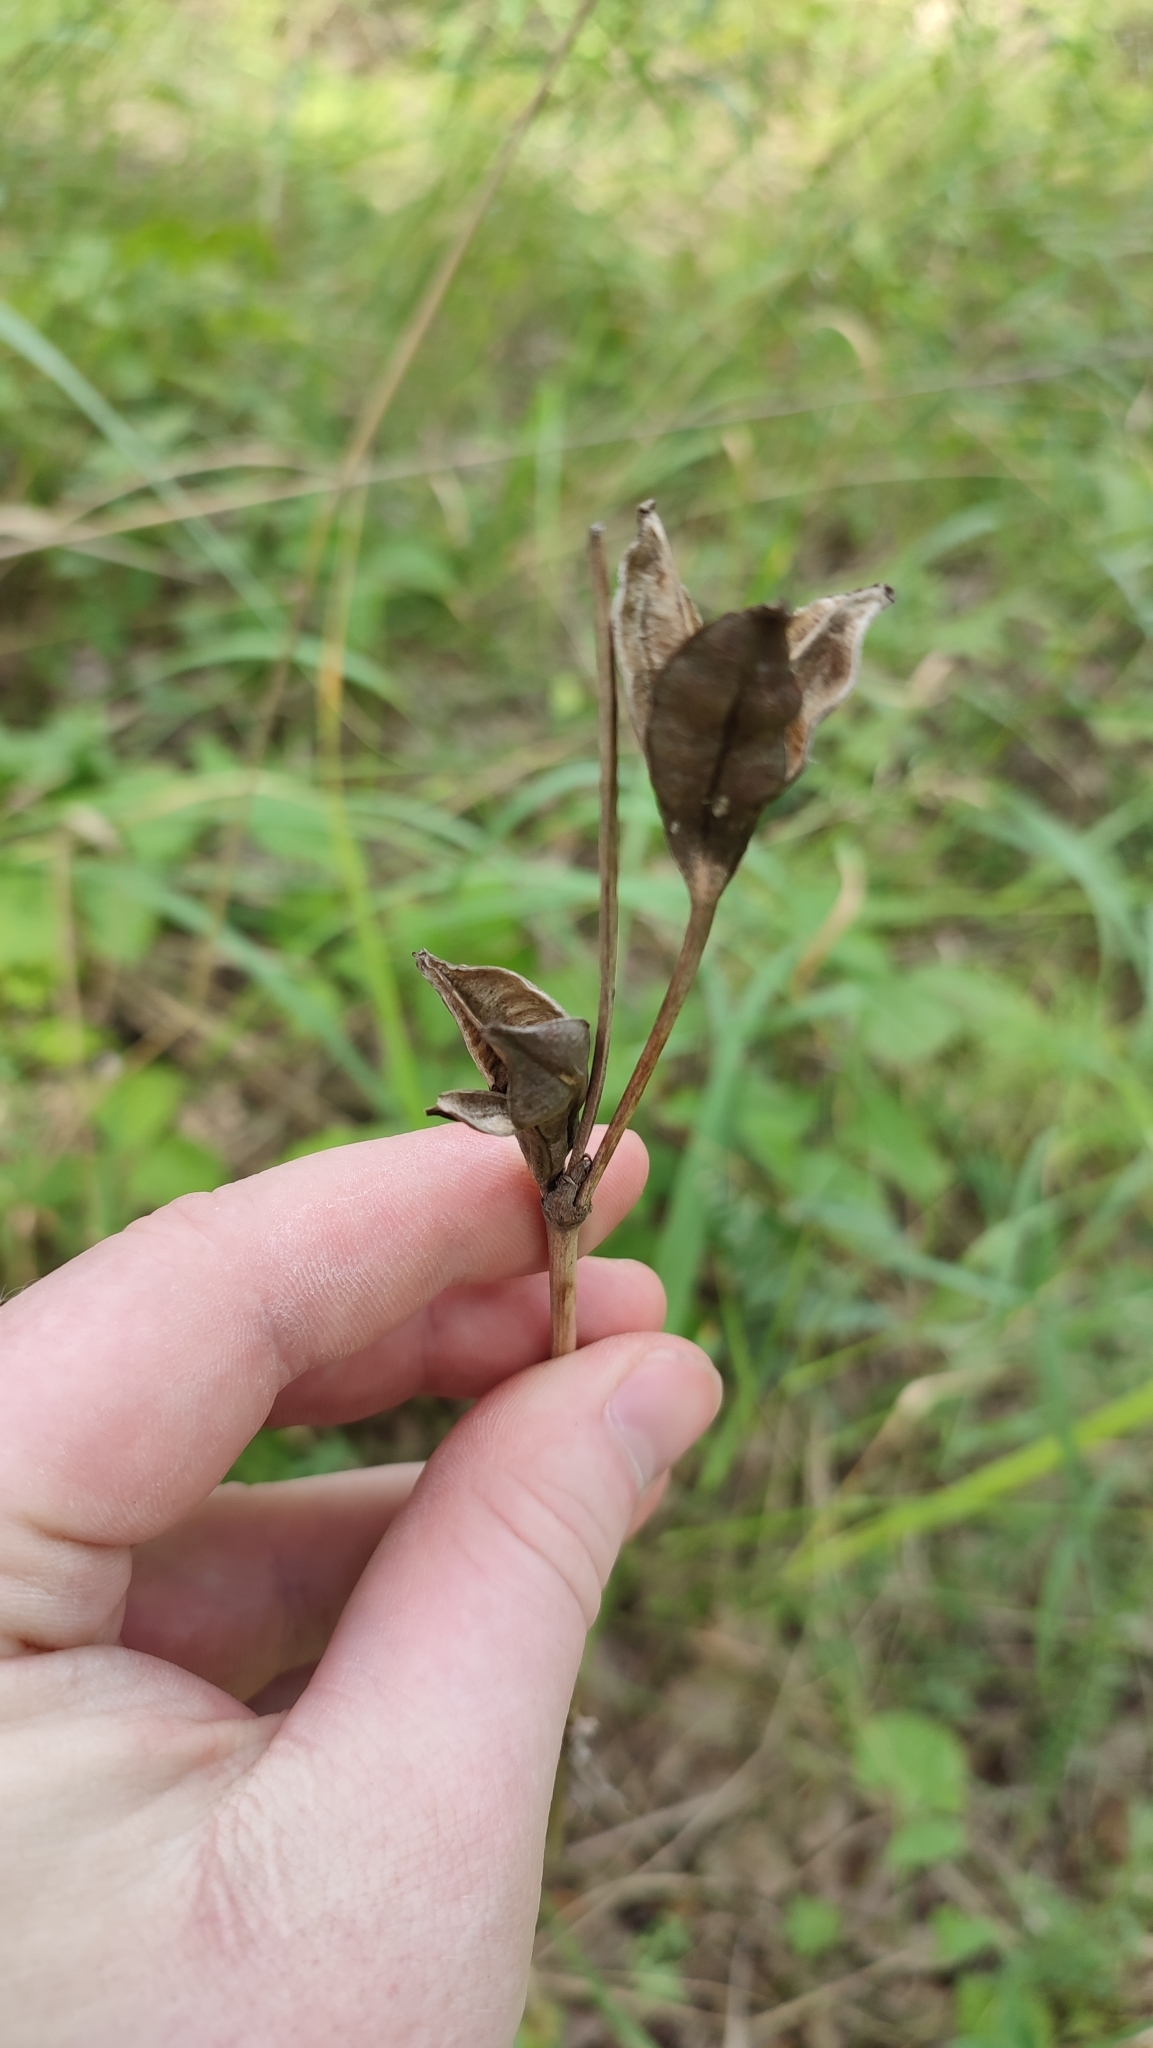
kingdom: Plantae
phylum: Tracheophyta
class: Liliopsida
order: Asparagales
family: Iridaceae
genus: Iris
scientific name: Iris sibirica
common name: Siberian iris
